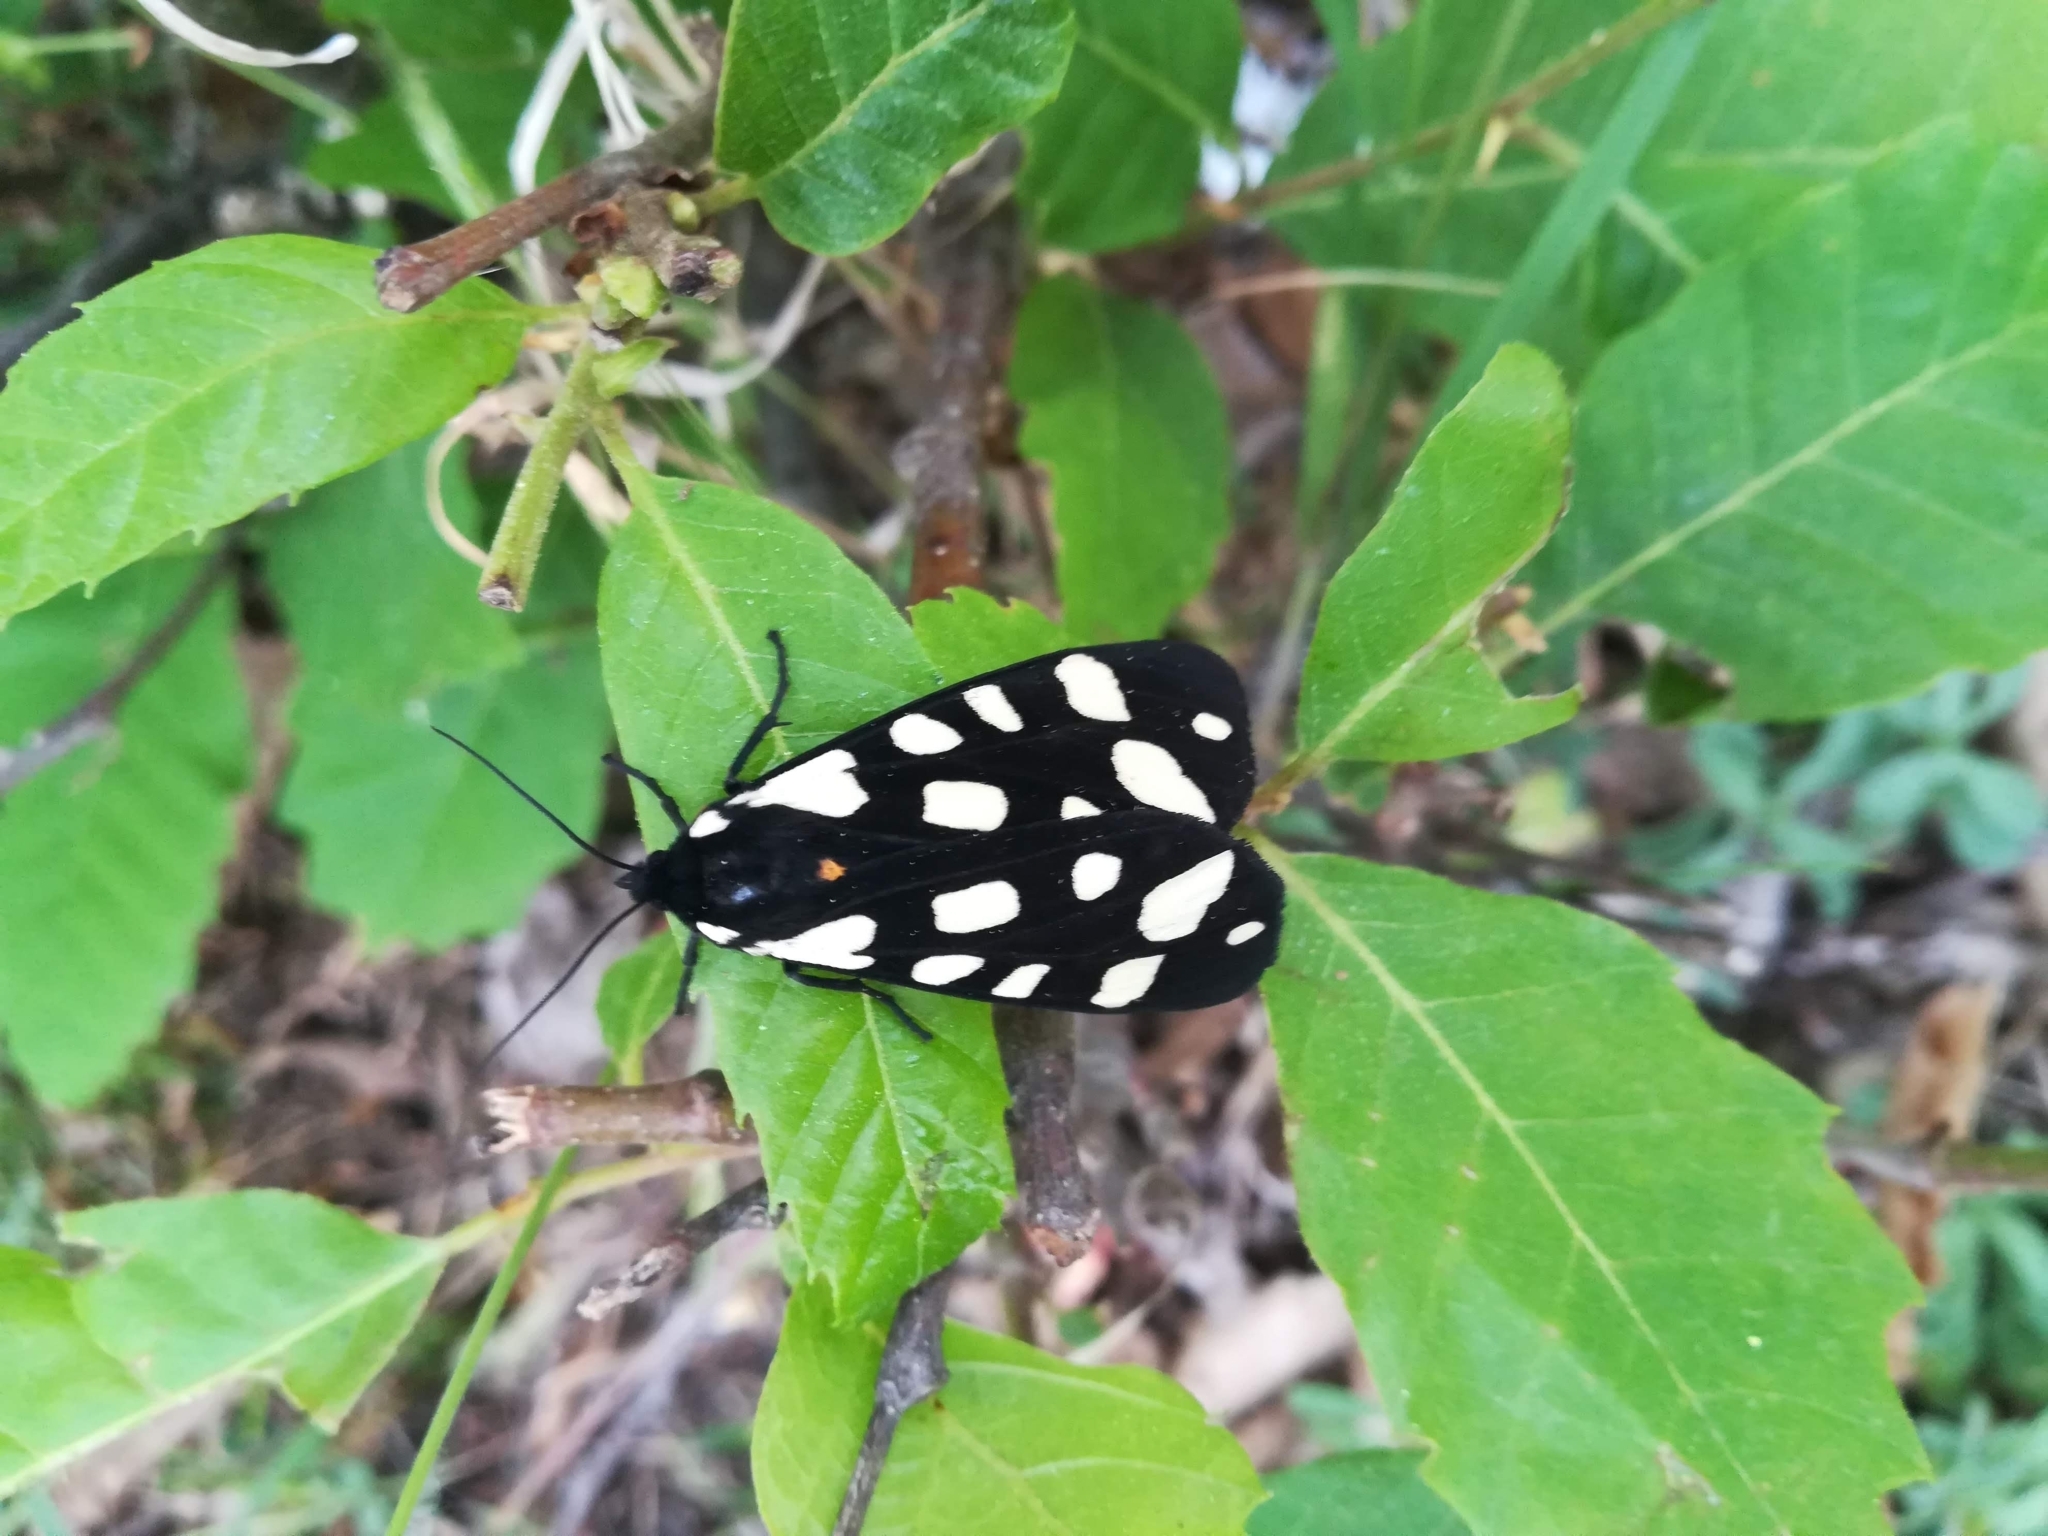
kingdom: Animalia
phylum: Arthropoda
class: Insecta
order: Lepidoptera
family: Erebidae
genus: Epicallia
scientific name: Epicallia villica
